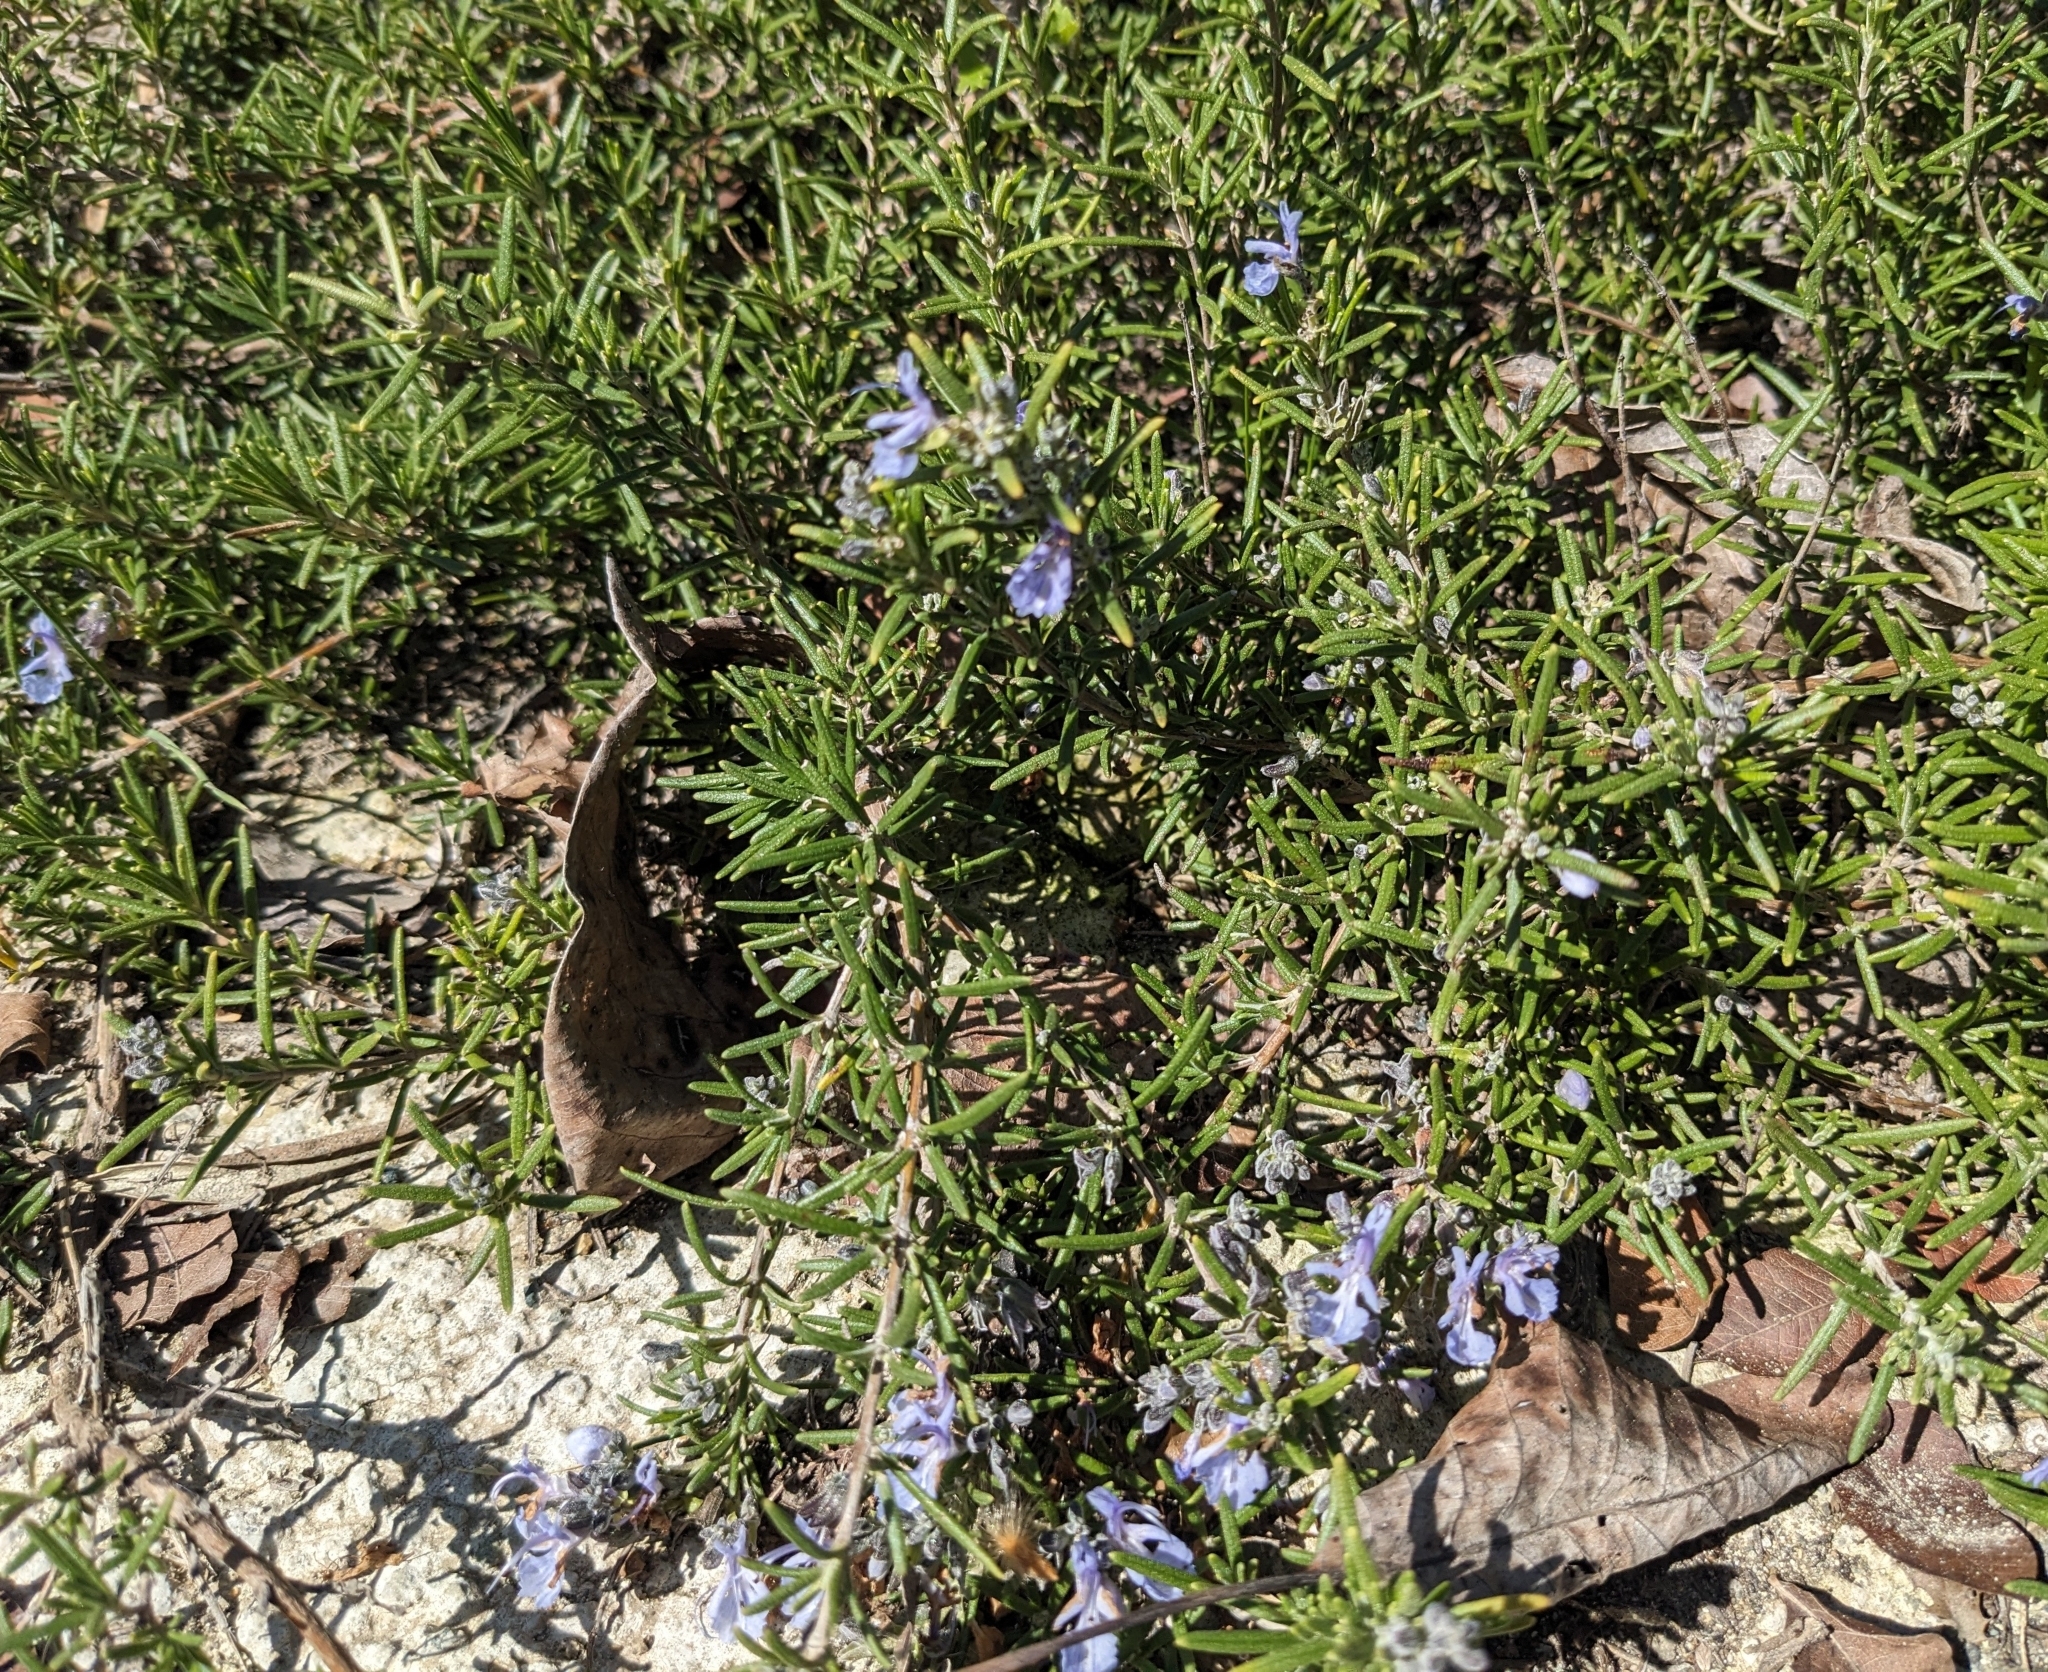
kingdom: Plantae
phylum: Tracheophyta
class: Magnoliopsida
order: Lamiales
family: Lamiaceae
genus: Salvia
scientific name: Salvia rosmarinus
